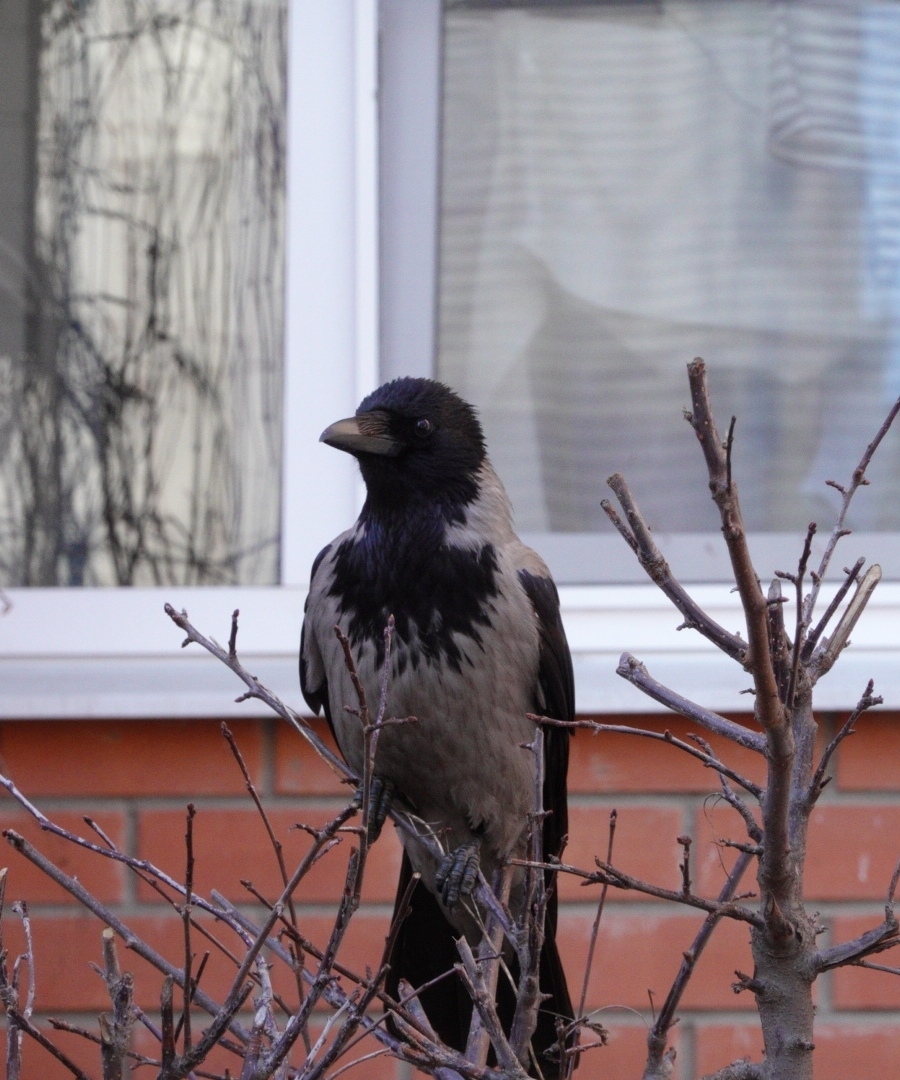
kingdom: Animalia
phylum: Chordata
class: Aves
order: Passeriformes
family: Corvidae
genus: Corvus
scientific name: Corvus cornix
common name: Hooded crow
